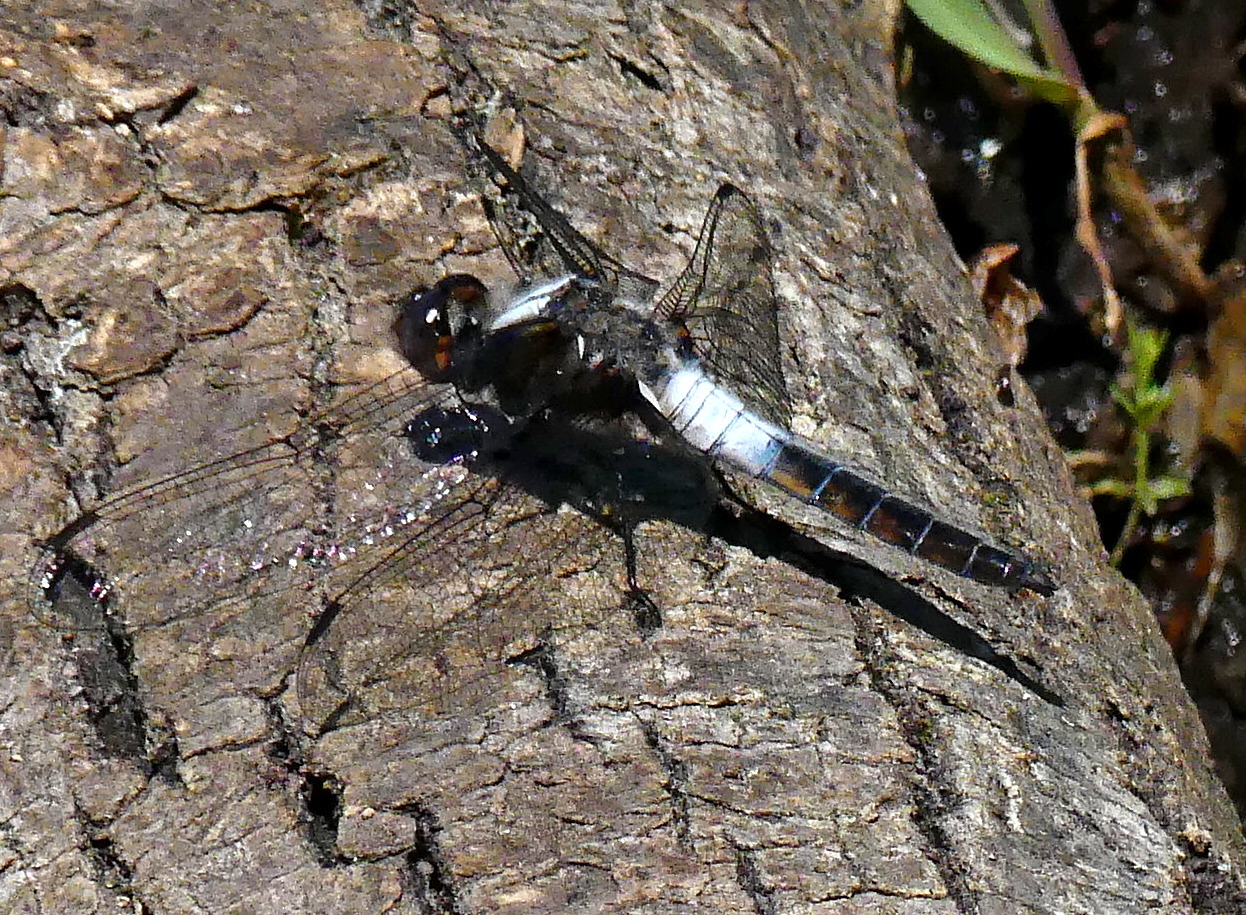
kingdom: Animalia
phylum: Arthropoda
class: Insecta
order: Odonata
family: Libellulidae
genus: Ladona
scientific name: Ladona julia
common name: Chalk-fronted corporal
